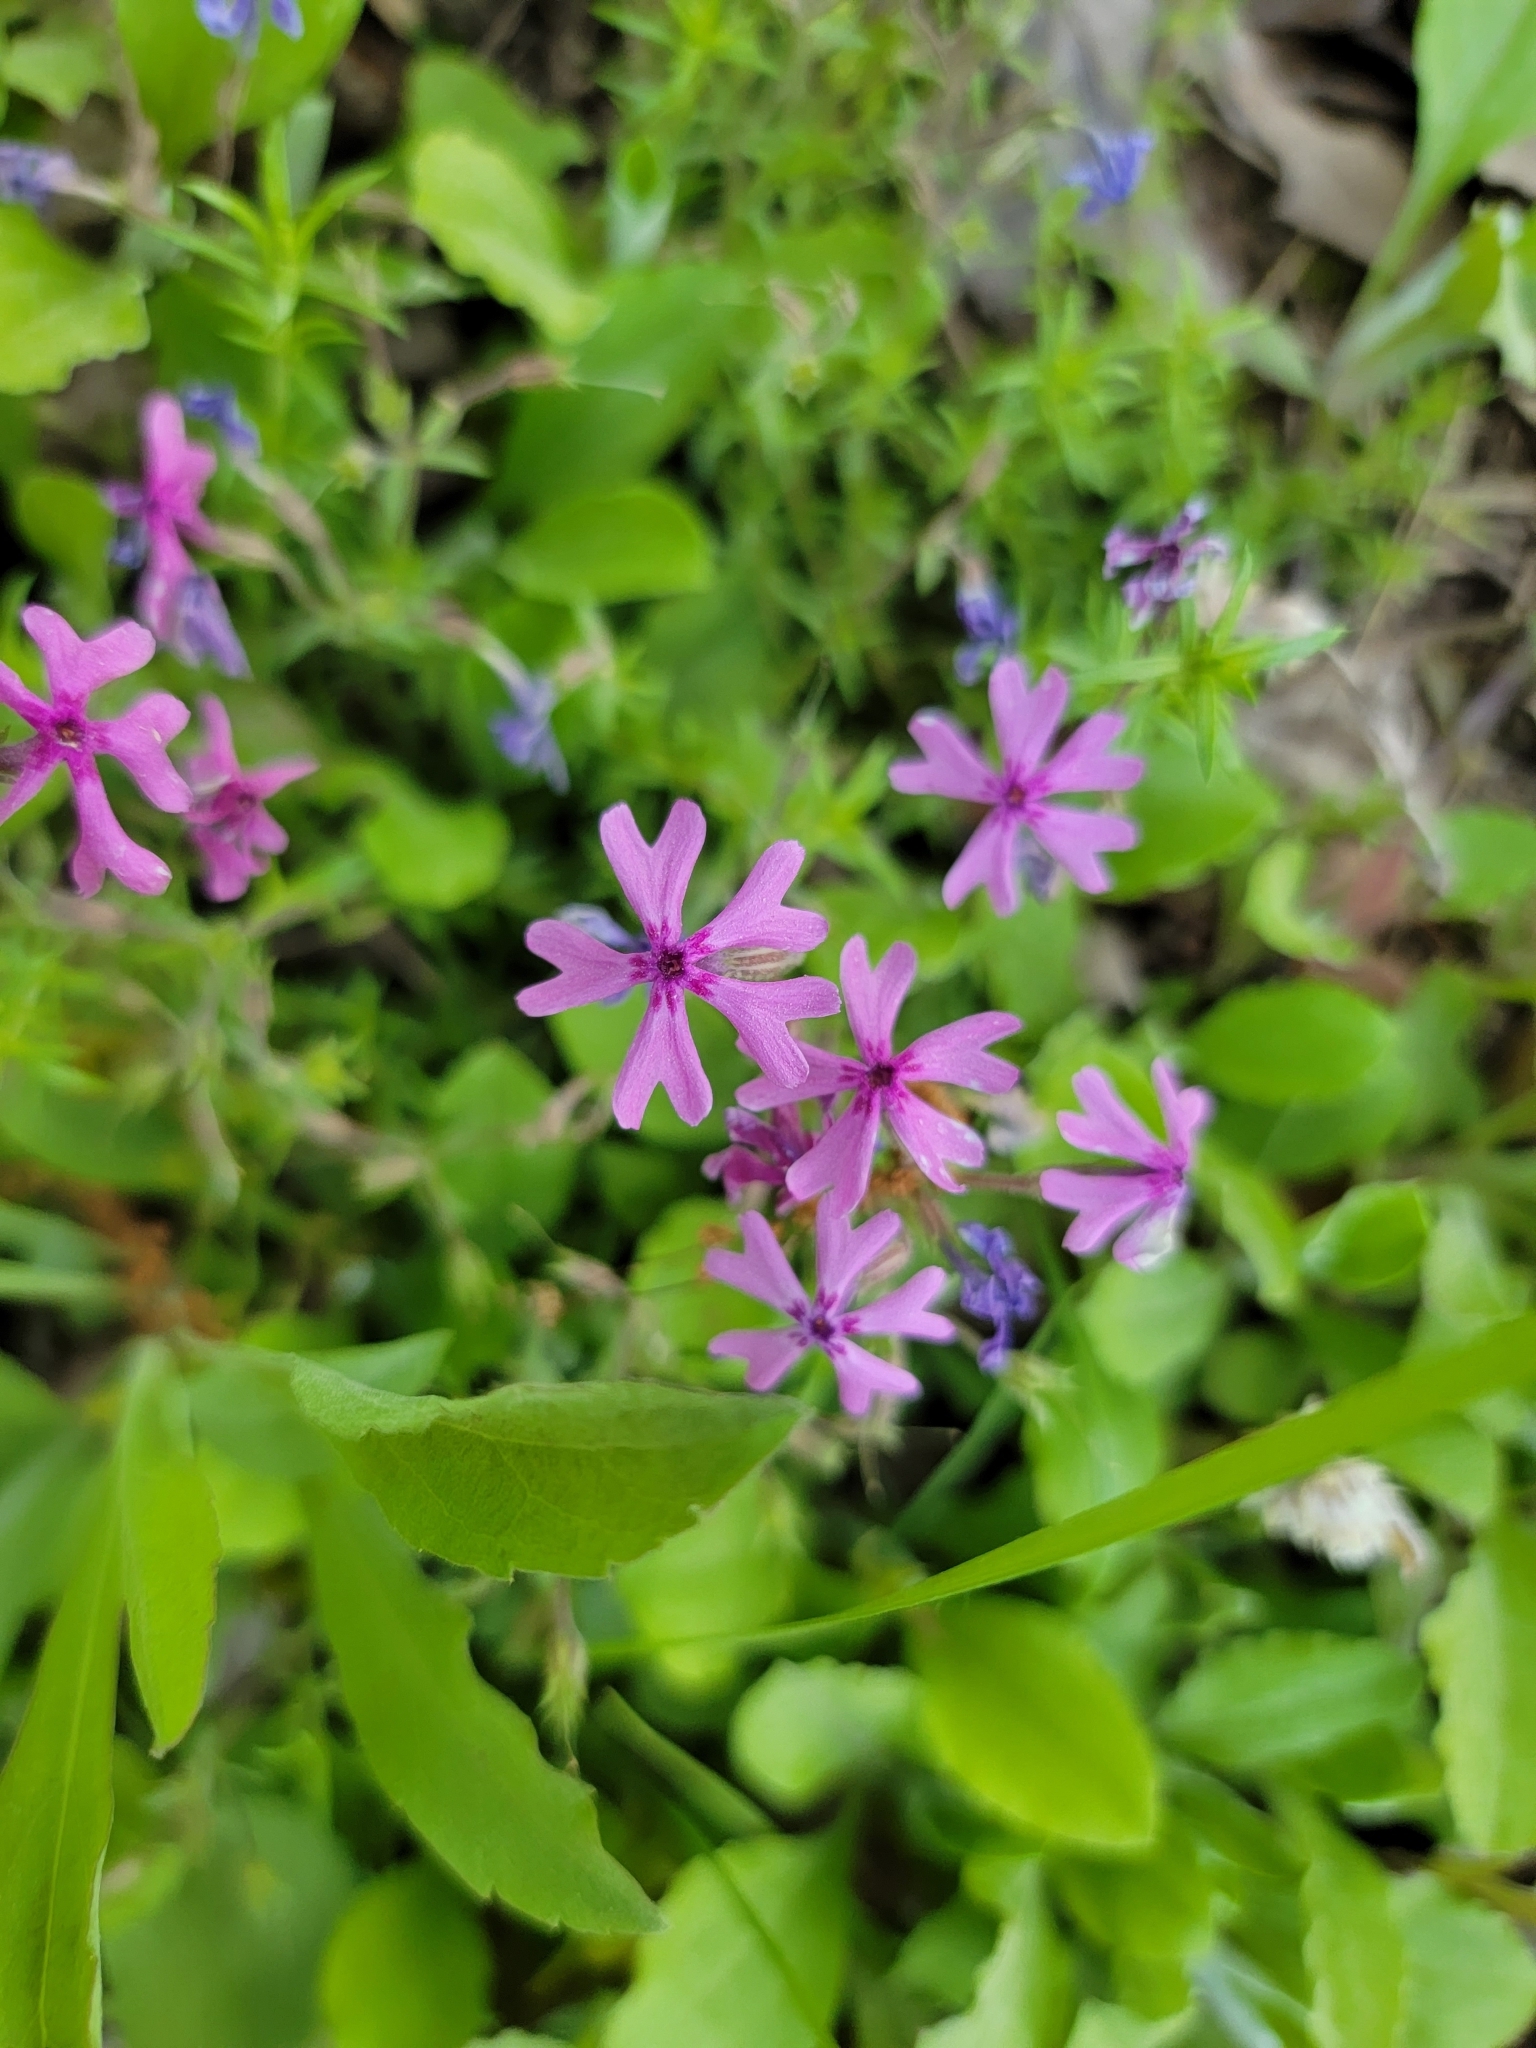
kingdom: Plantae
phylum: Tracheophyta
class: Magnoliopsida
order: Ericales
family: Polemoniaceae
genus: Phlox
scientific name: Phlox subulata
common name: Moss phlox
